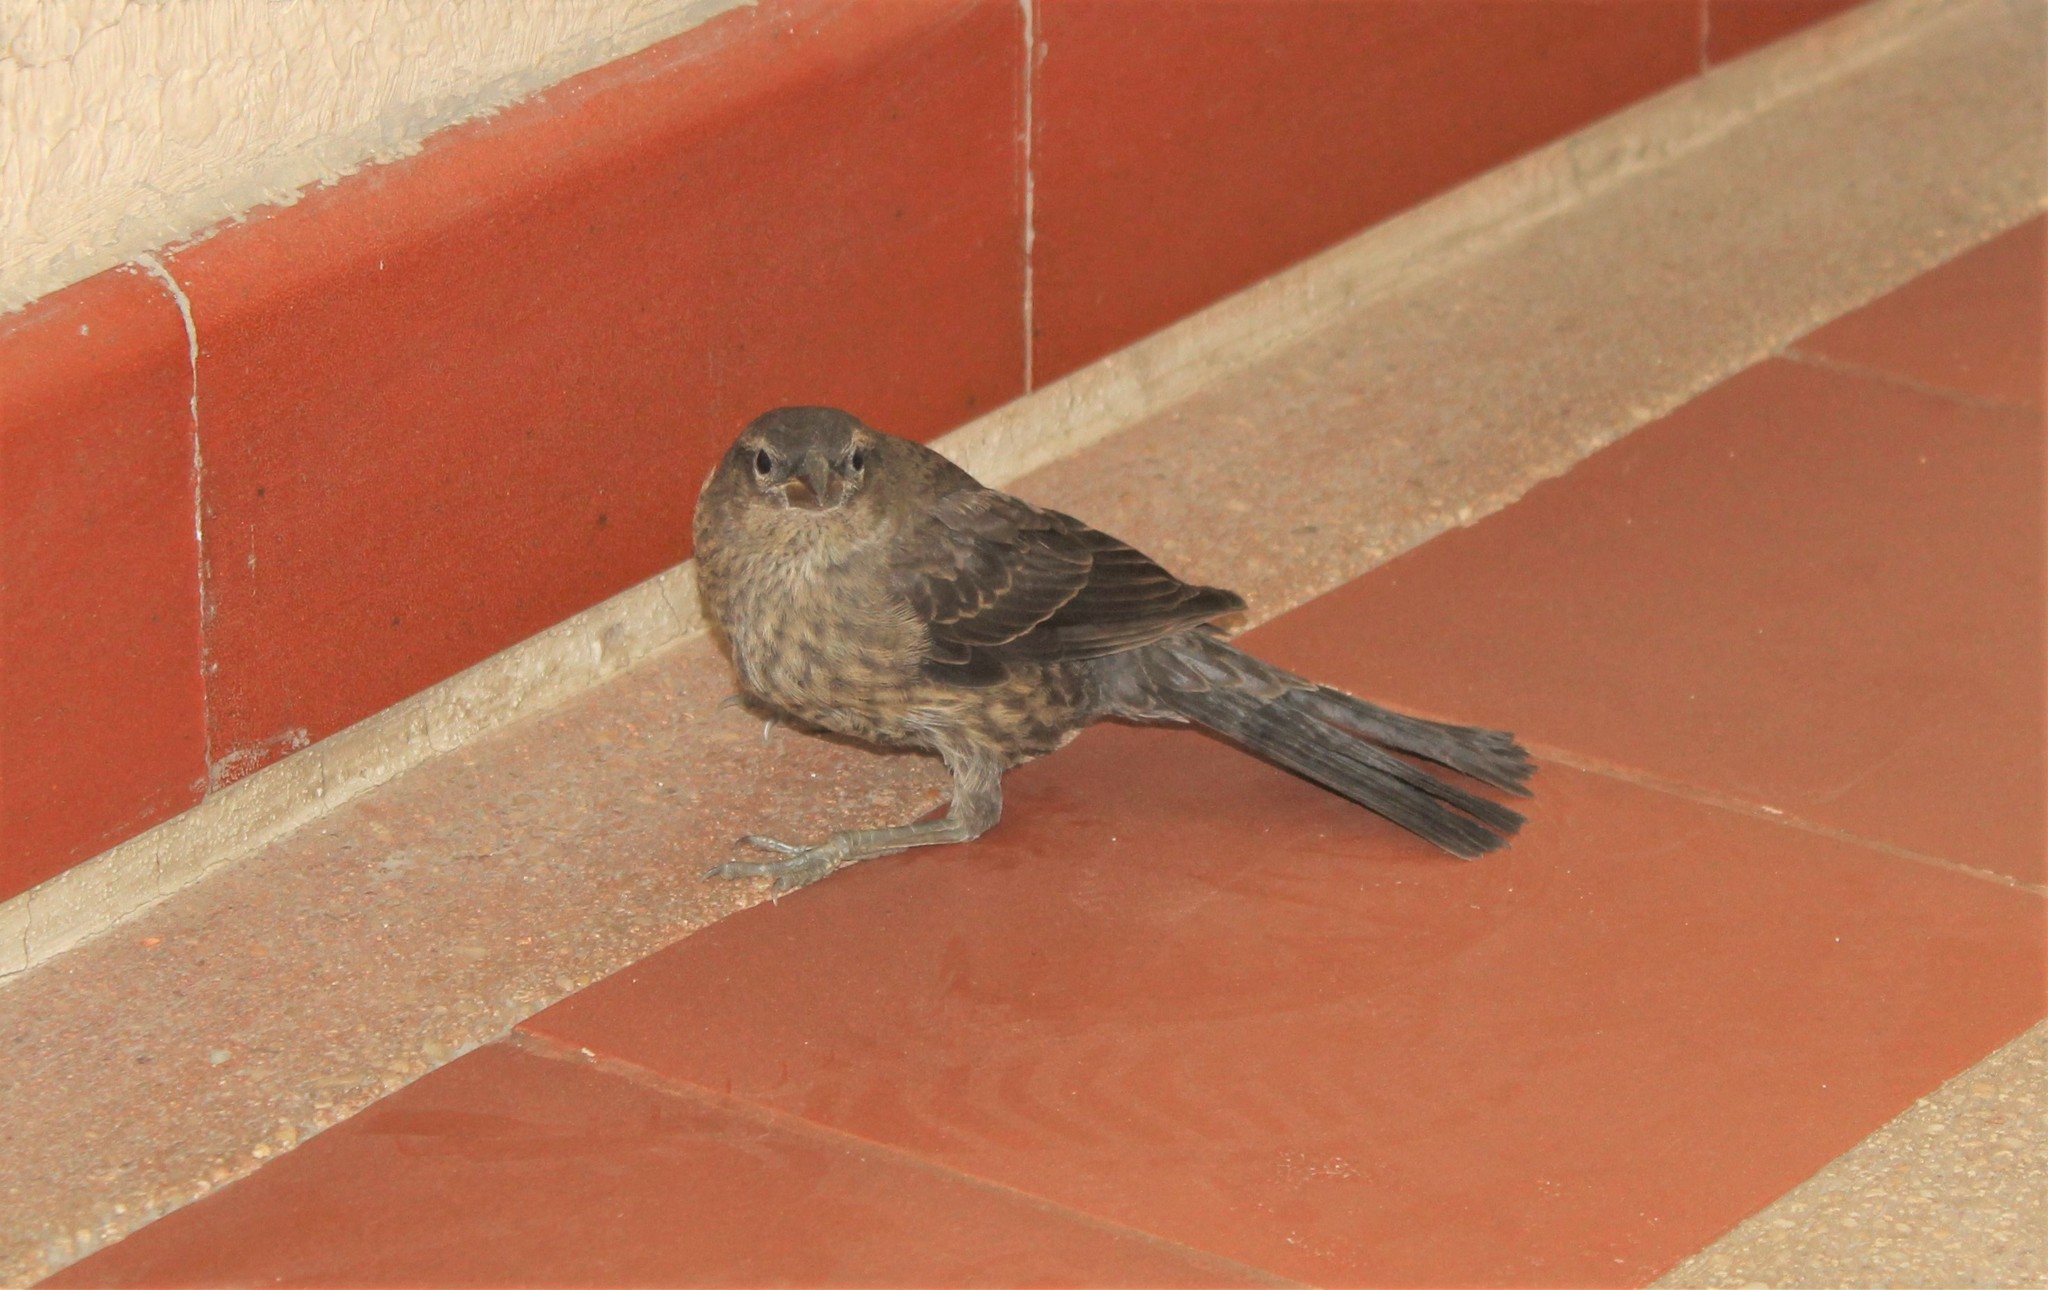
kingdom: Animalia
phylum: Chordata
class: Aves
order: Passeriformes
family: Icteridae
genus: Molothrus
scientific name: Molothrus bonariensis
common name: Shiny cowbird
